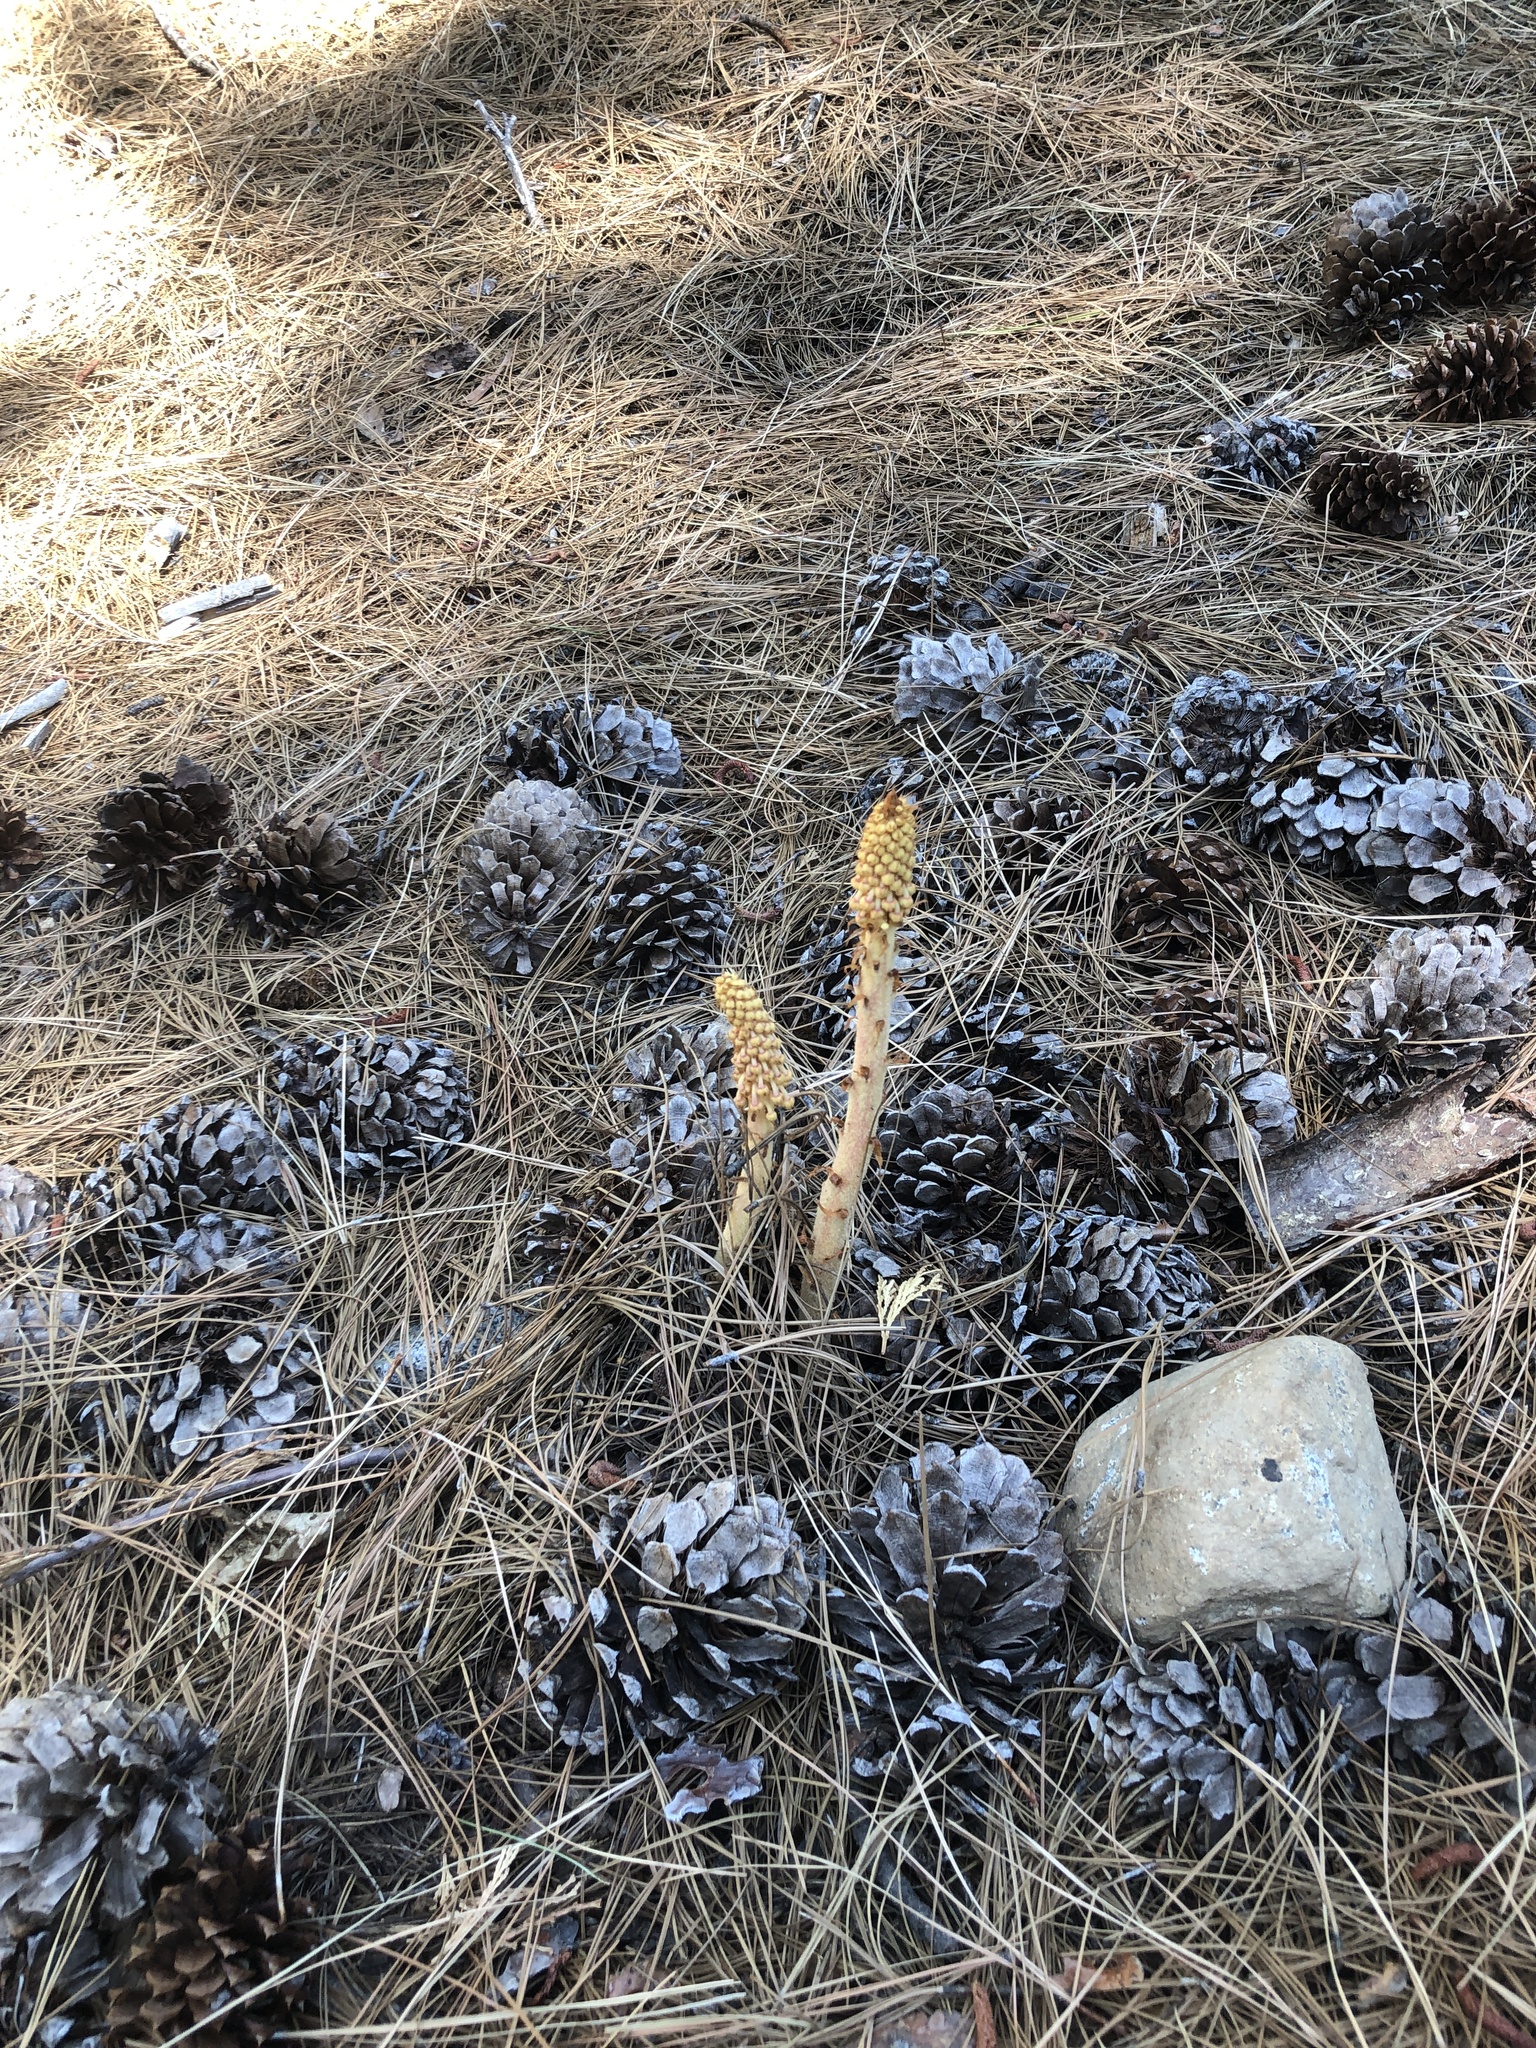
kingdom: Plantae
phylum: Tracheophyta
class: Magnoliopsida
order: Ericales
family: Ericaceae
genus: Pterospora
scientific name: Pterospora andromedea
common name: Giant bird's-nest
